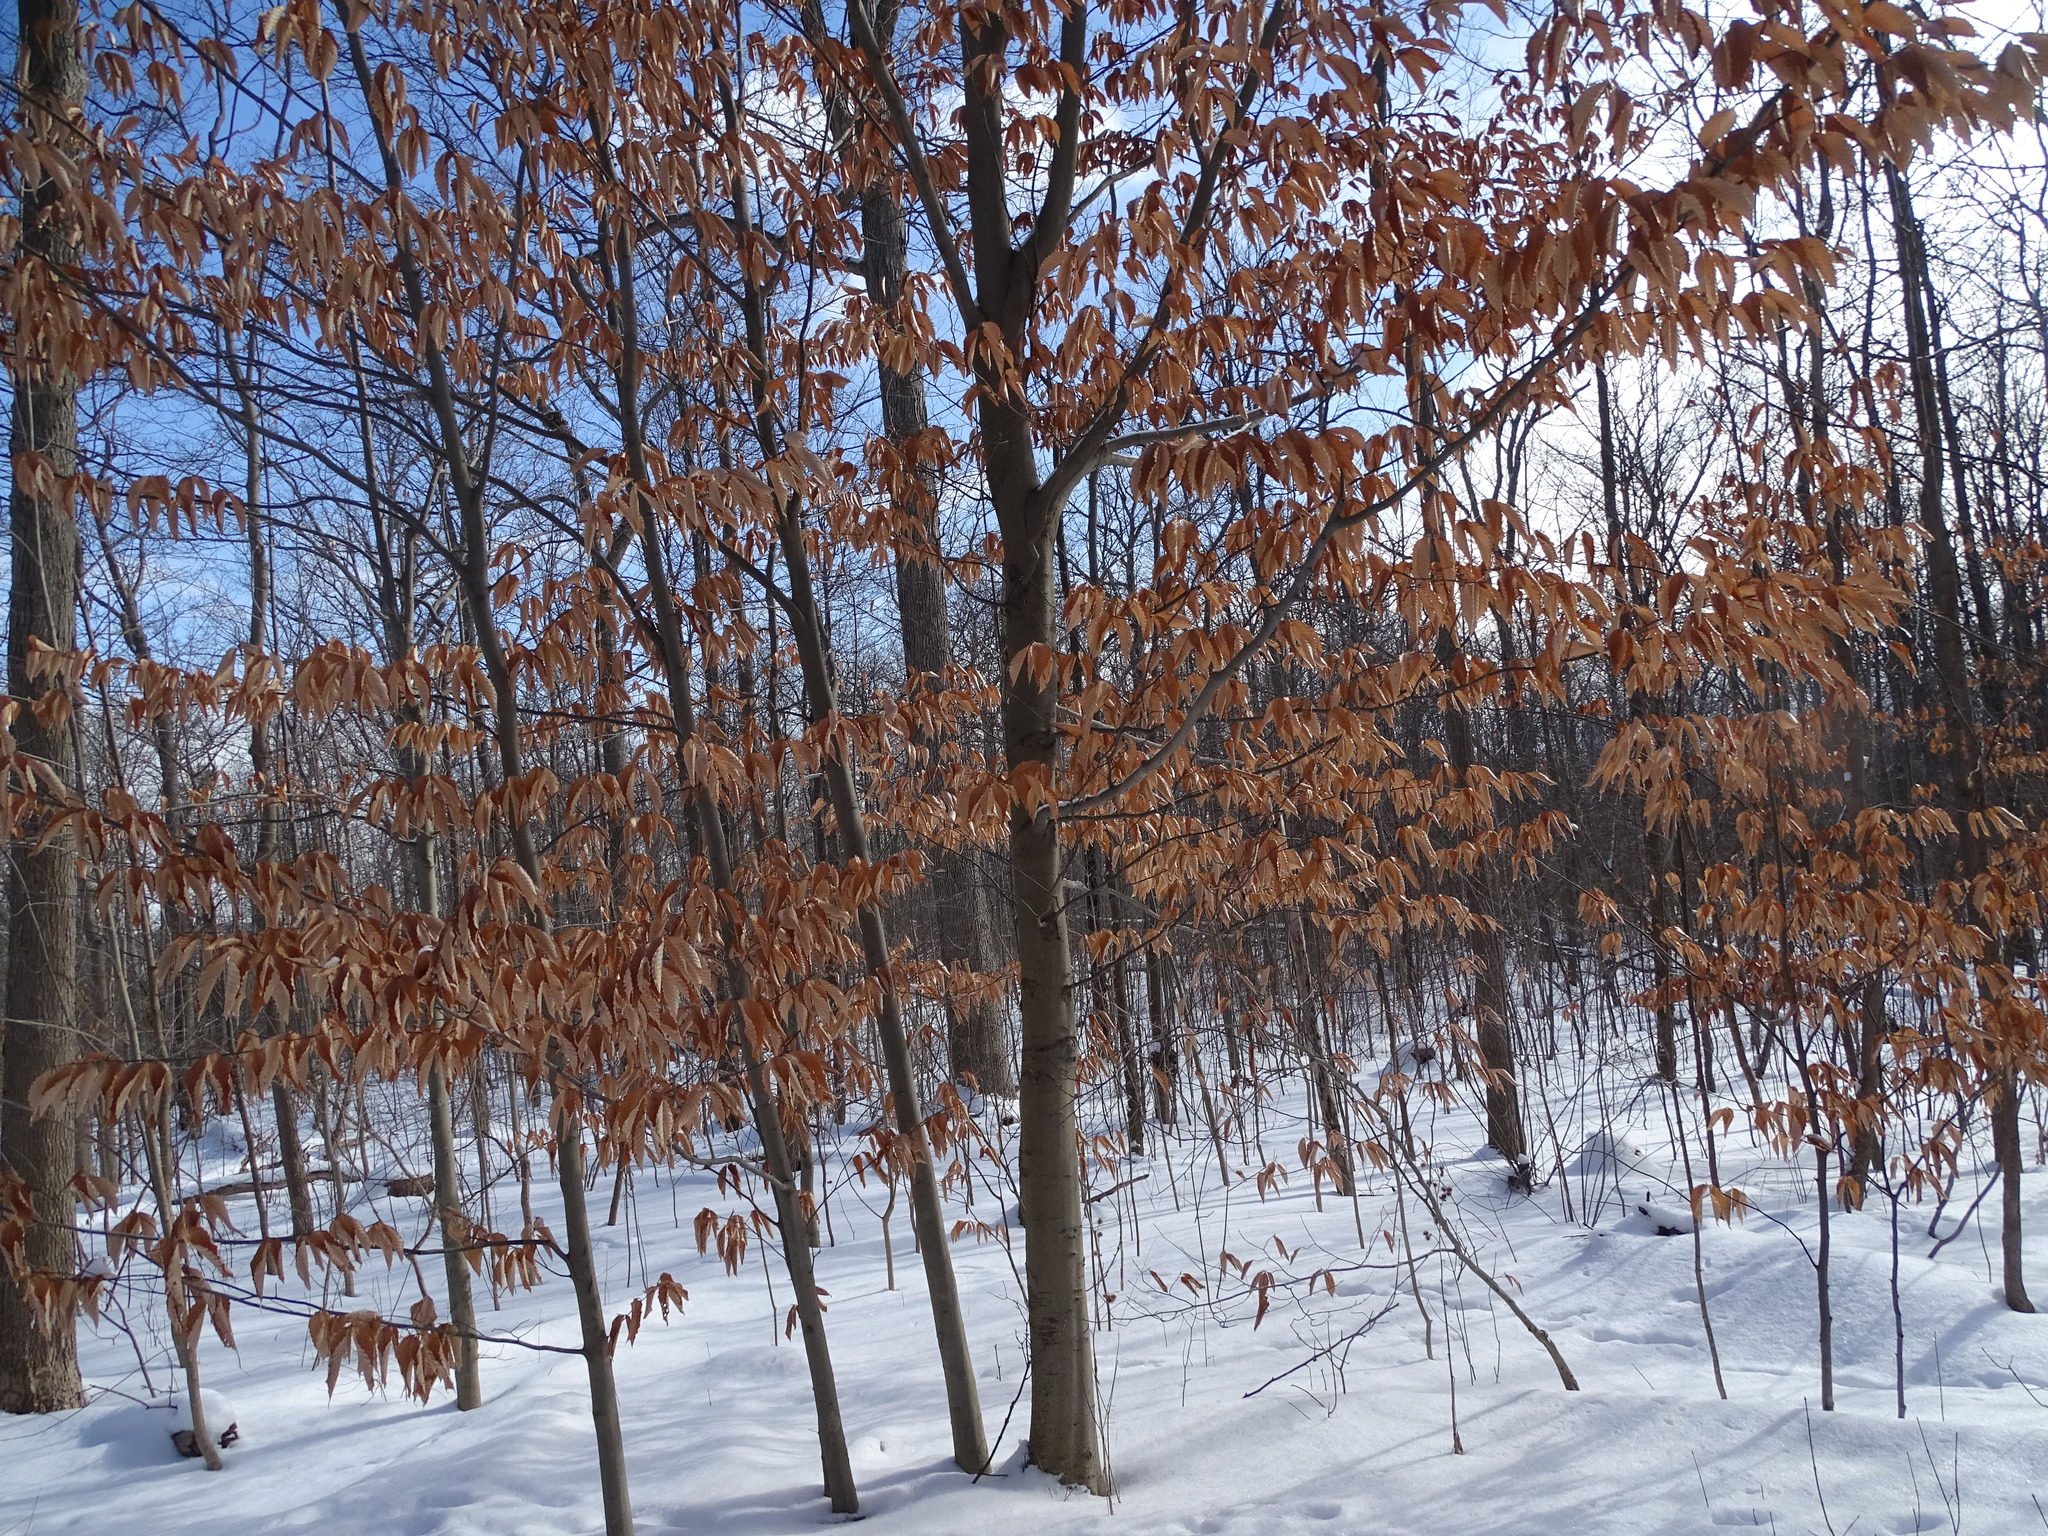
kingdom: Plantae
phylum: Tracheophyta
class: Magnoliopsida
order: Fagales
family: Fagaceae
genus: Fagus
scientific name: Fagus grandifolia
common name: American beech
